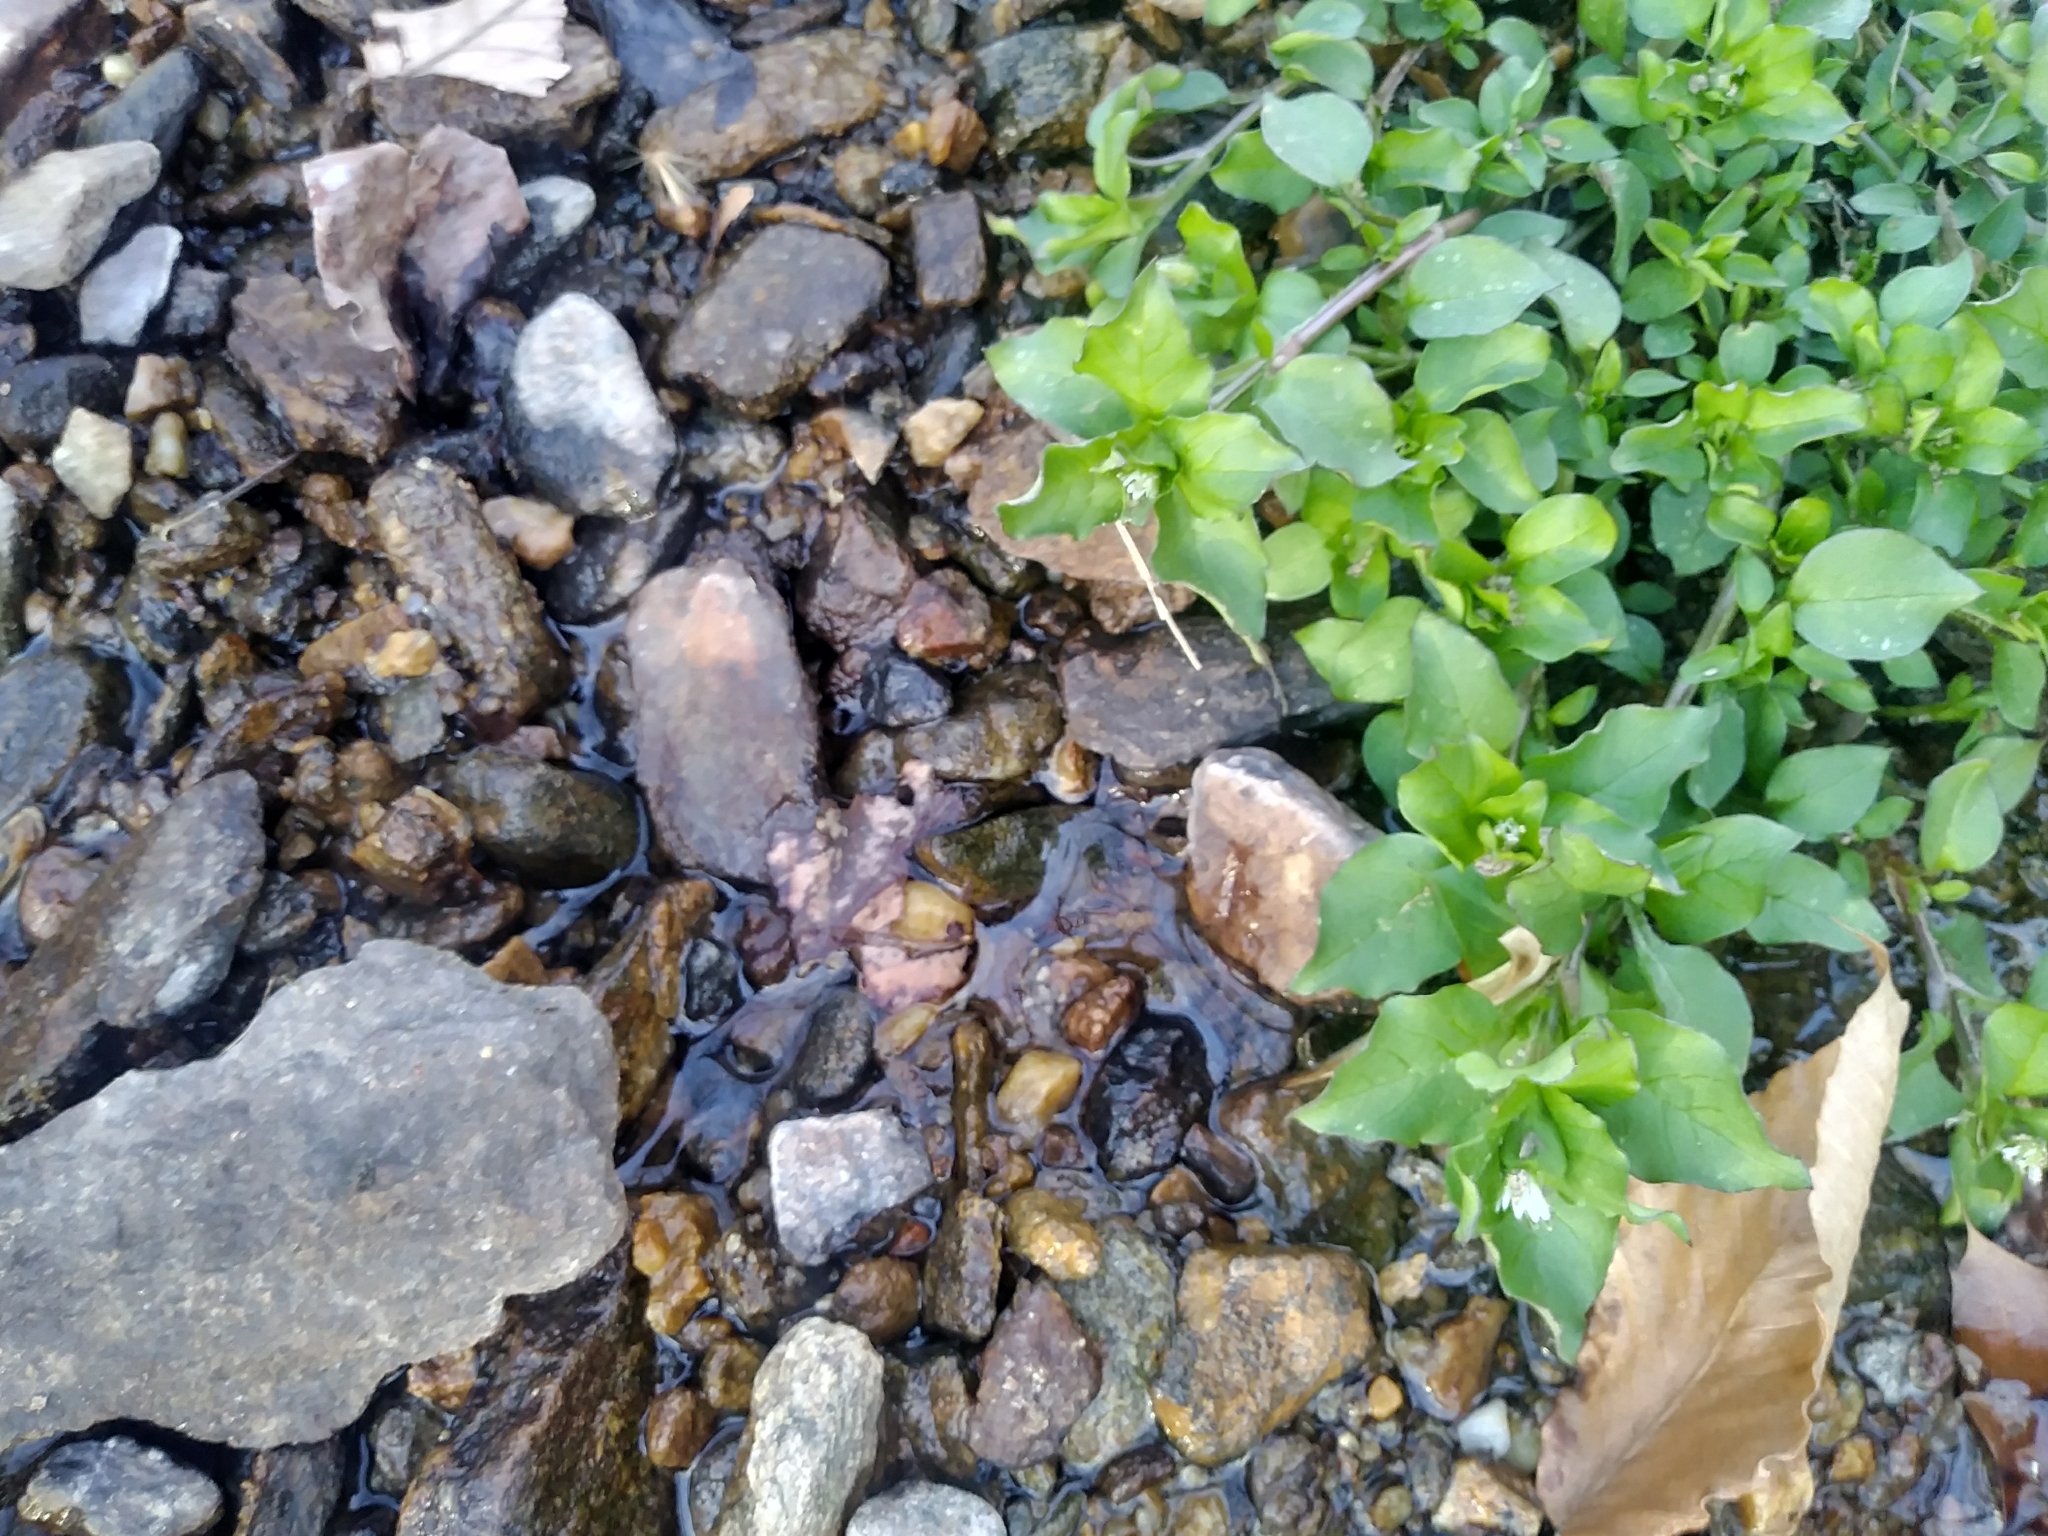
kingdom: Plantae
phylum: Tracheophyta
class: Magnoliopsida
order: Caryophyllales
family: Caryophyllaceae
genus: Stellaria
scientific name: Stellaria aquatica
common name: Water chickweed
